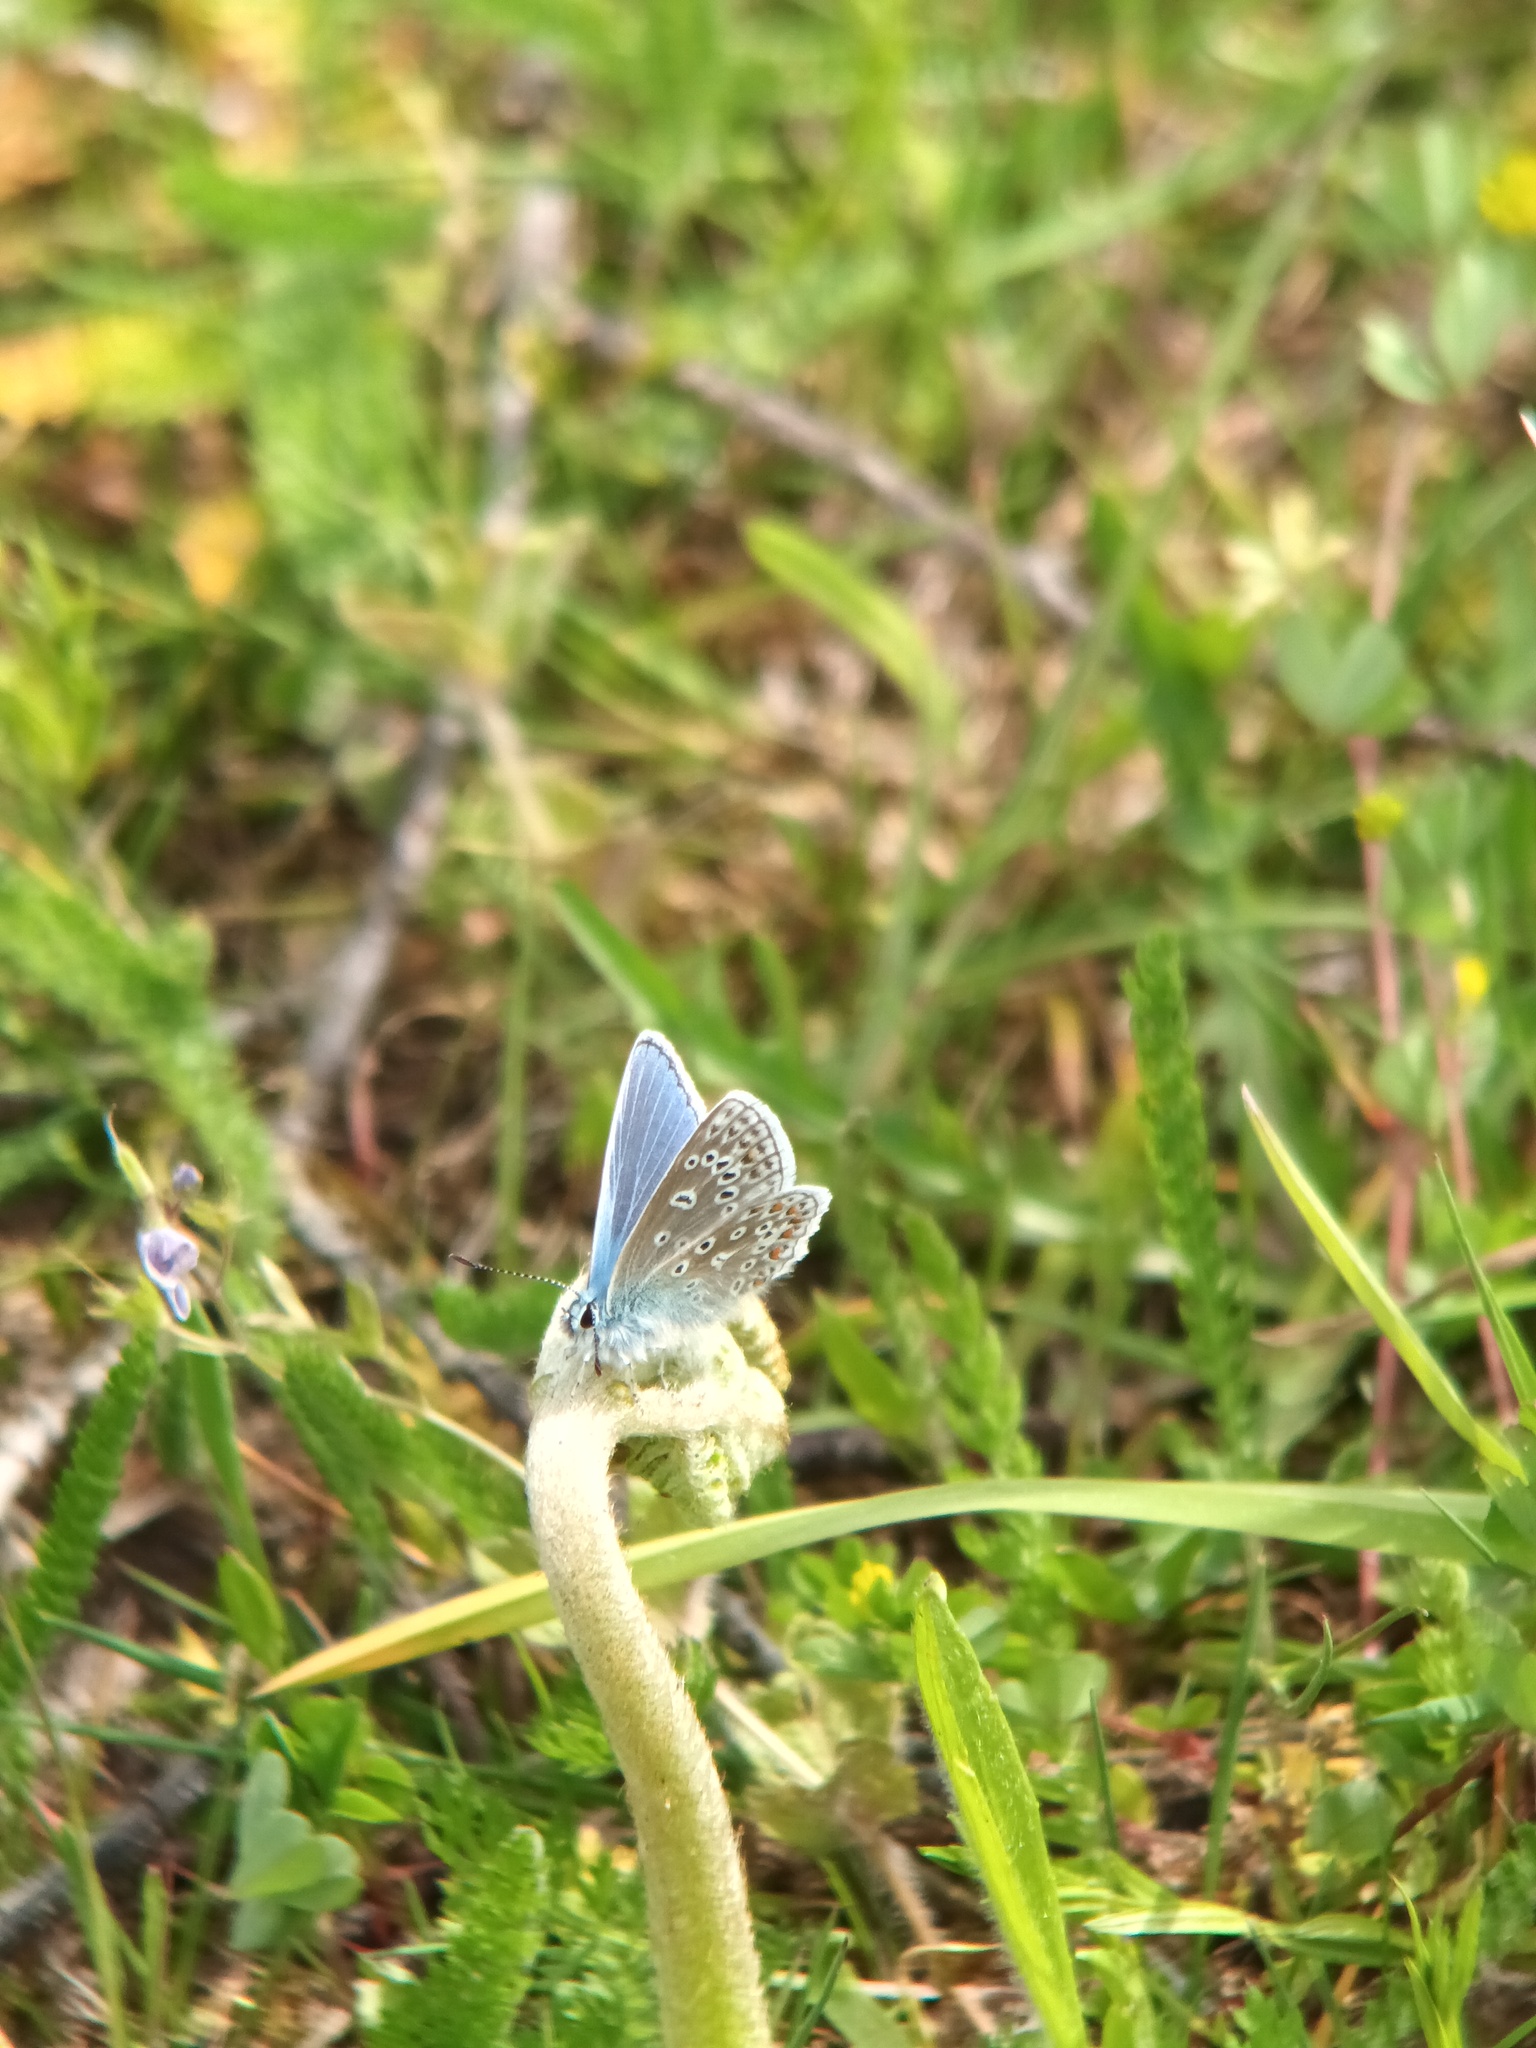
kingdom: Animalia
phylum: Arthropoda
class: Insecta
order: Lepidoptera
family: Lycaenidae
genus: Polyommatus
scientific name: Polyommatus icarus
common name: Common blue
